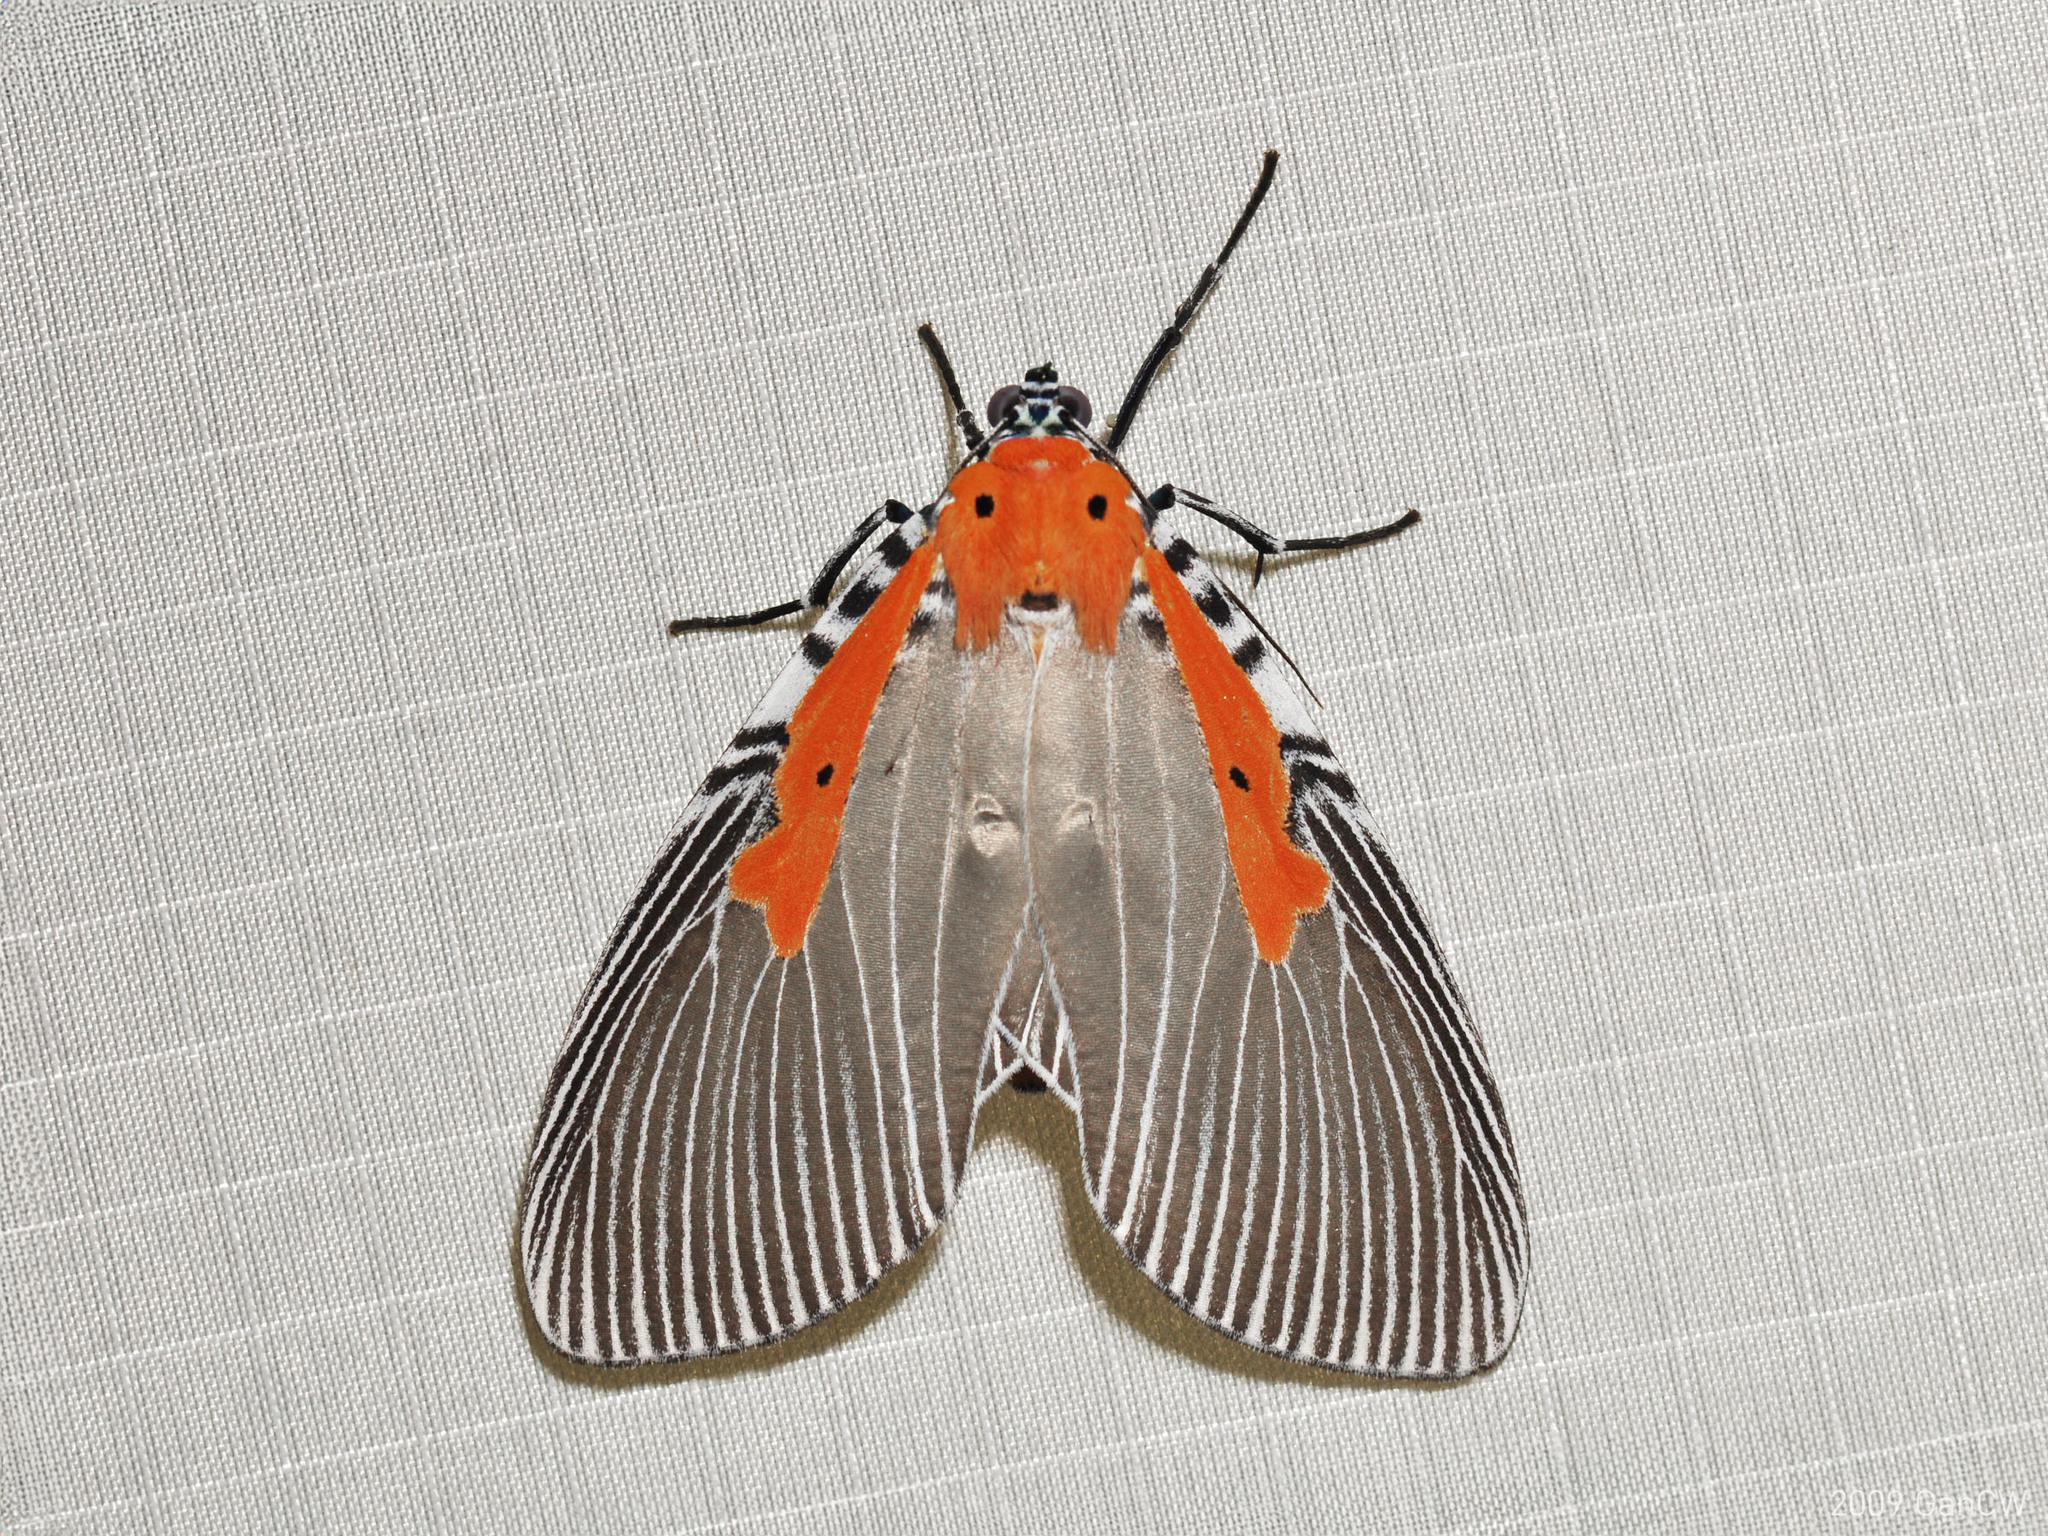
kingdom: Animalia
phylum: Arthropoda
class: Insecta
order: Lepidoptera
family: Erebidae
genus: Euplocia
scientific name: Euplocia membliaria
